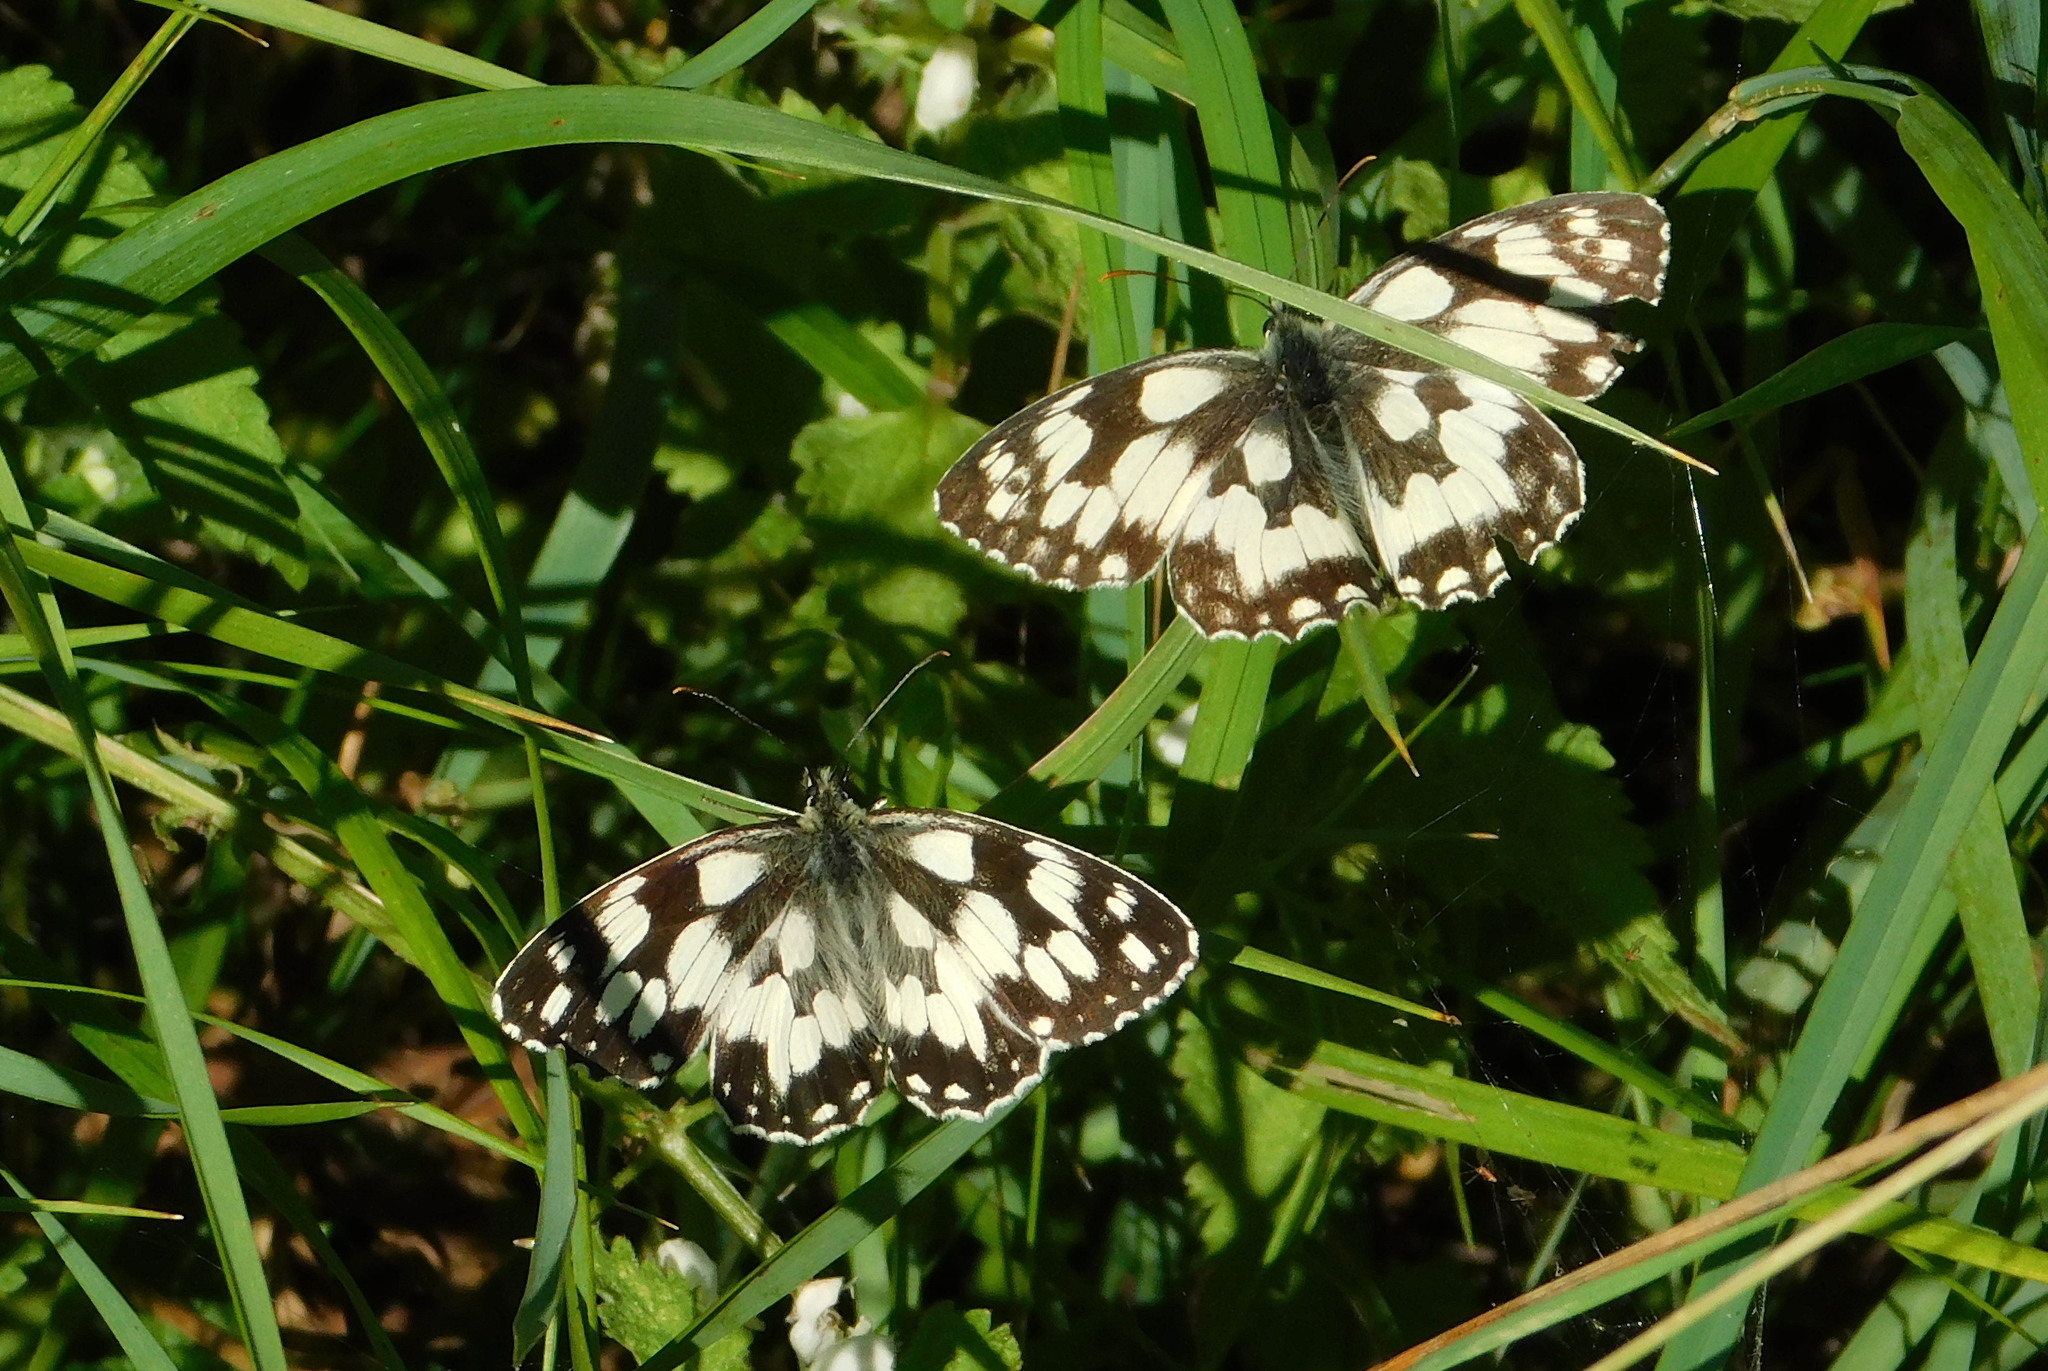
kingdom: Animalia
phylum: Arthropoda
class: Insecta
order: Lepidoptera
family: Nymphalidae
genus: Melanargia
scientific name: Melanargia galathea
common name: Marbled white
